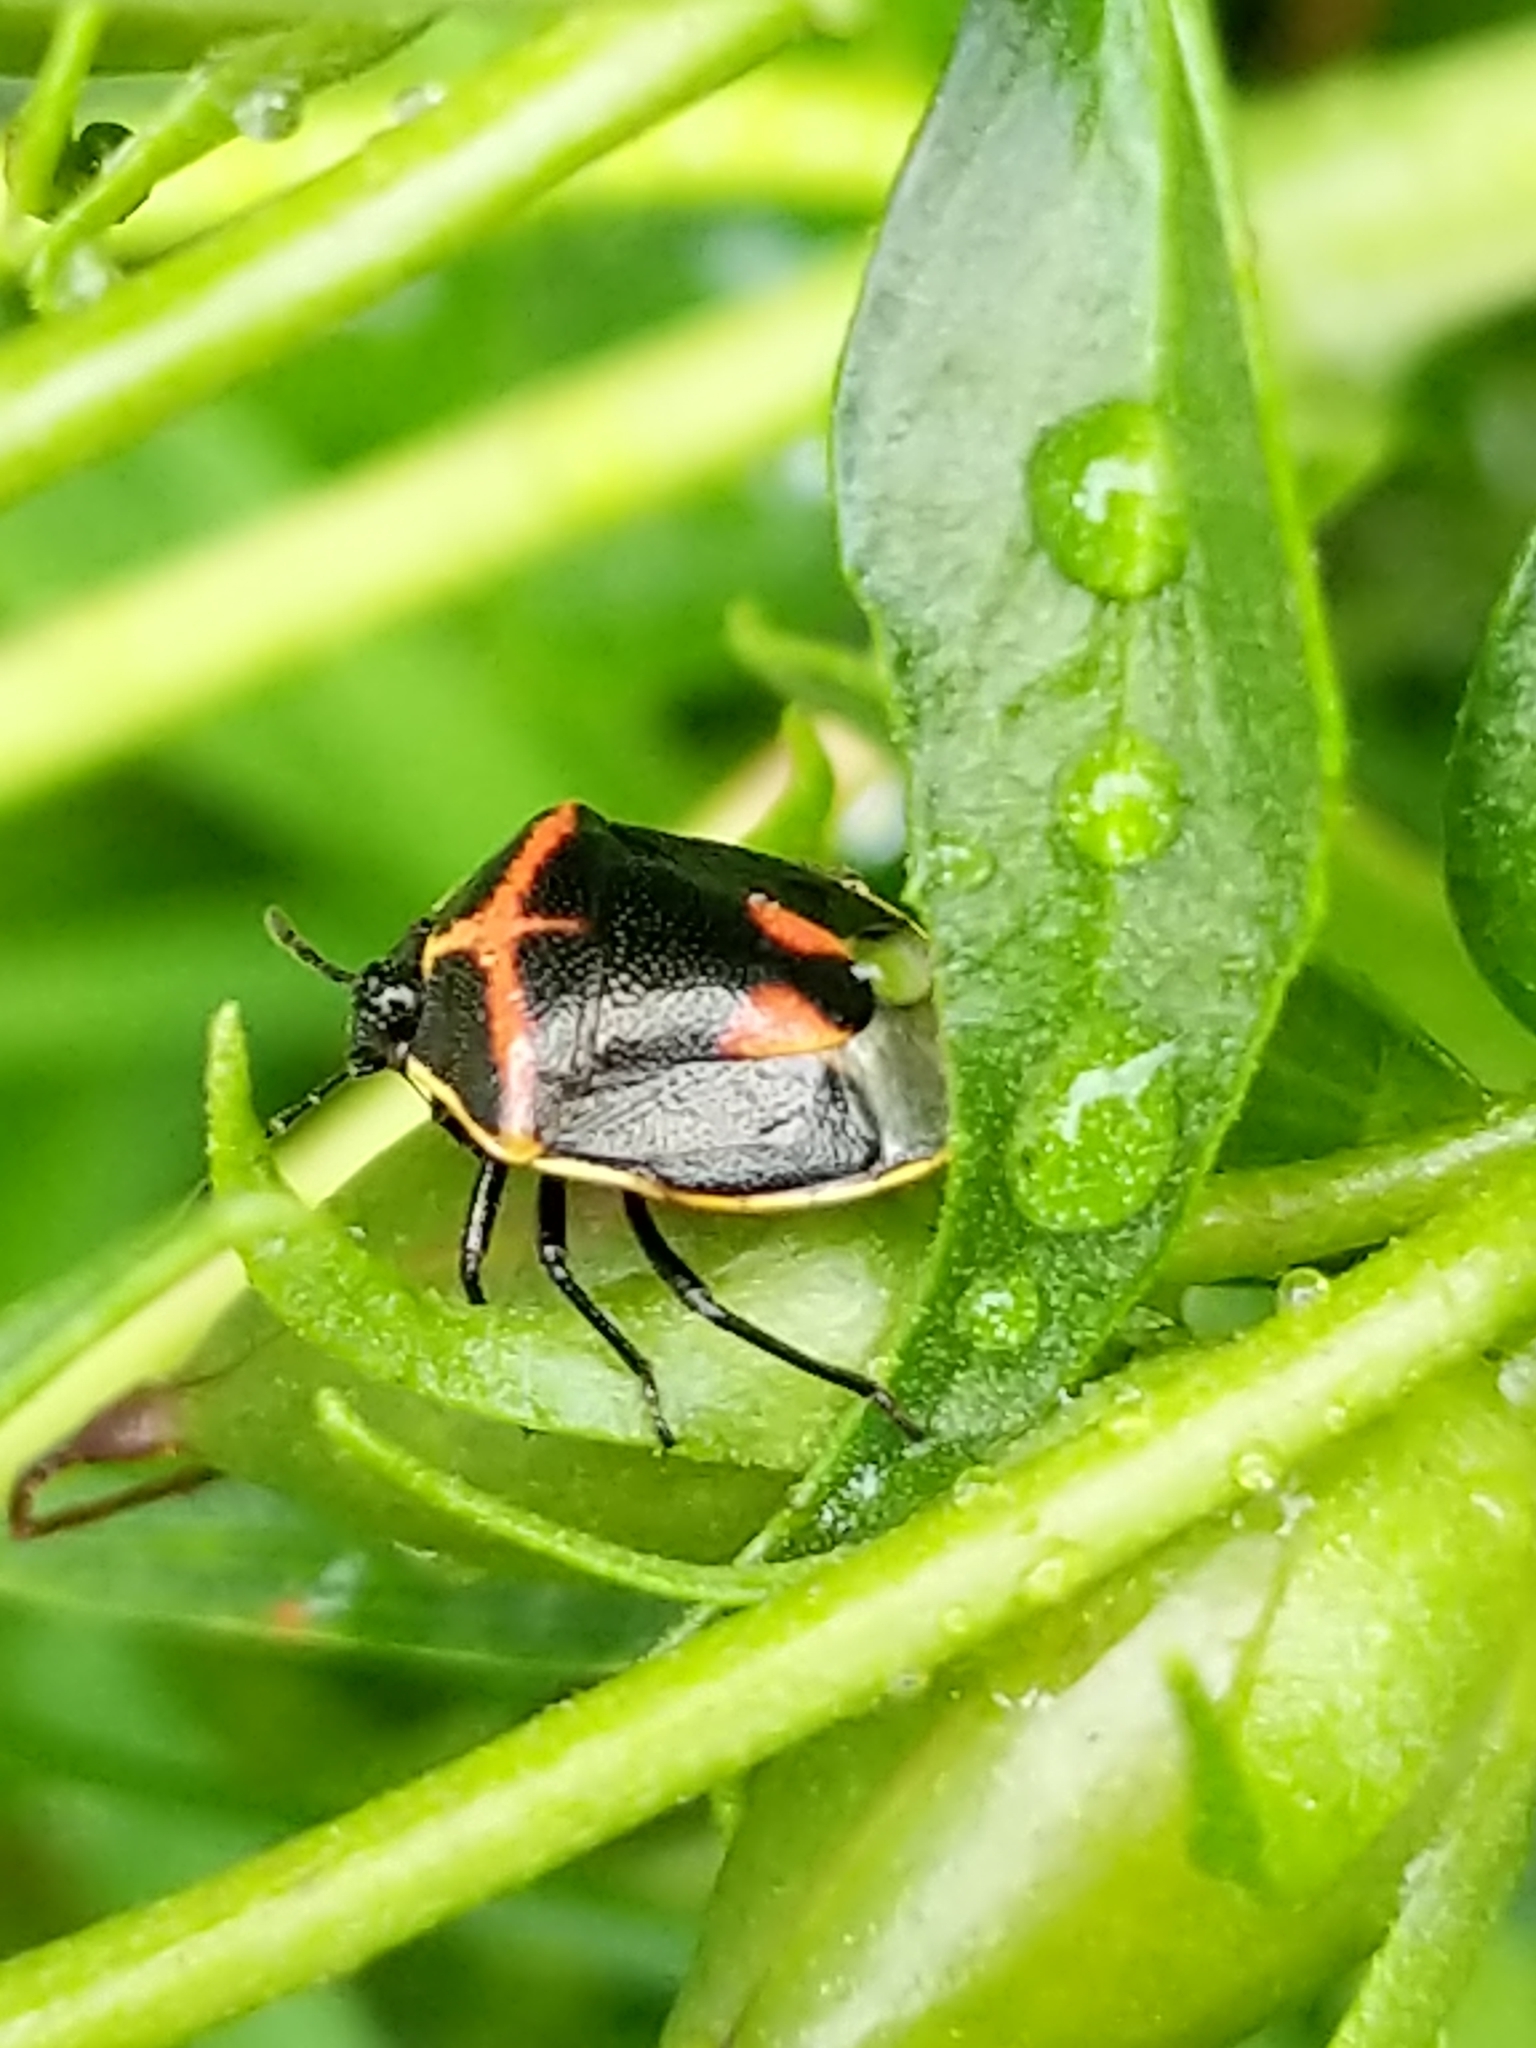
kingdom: Animalia
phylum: Arthropoda
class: Insecta
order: Hemiptera
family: Pentatomidae
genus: Cosmopepla
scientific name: Cosmopepla lintneriana
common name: Twice-stabbed stink bug
